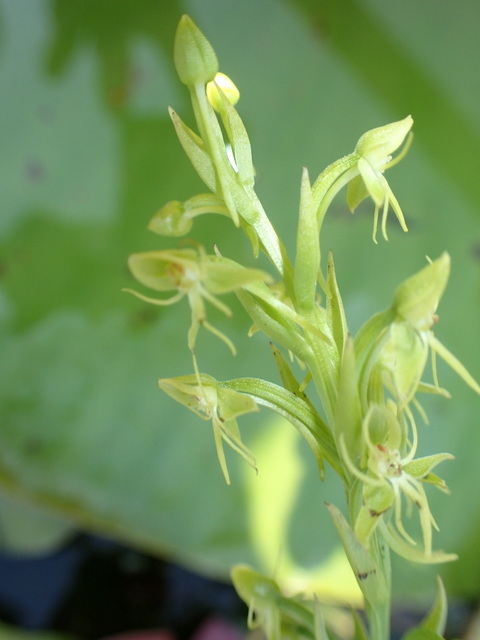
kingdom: Plantae
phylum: Tracheophyta
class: Liliopsida
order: Asparagales
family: Orchidaceae
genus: Habenaria
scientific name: Habenaria repens
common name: Water orchid
